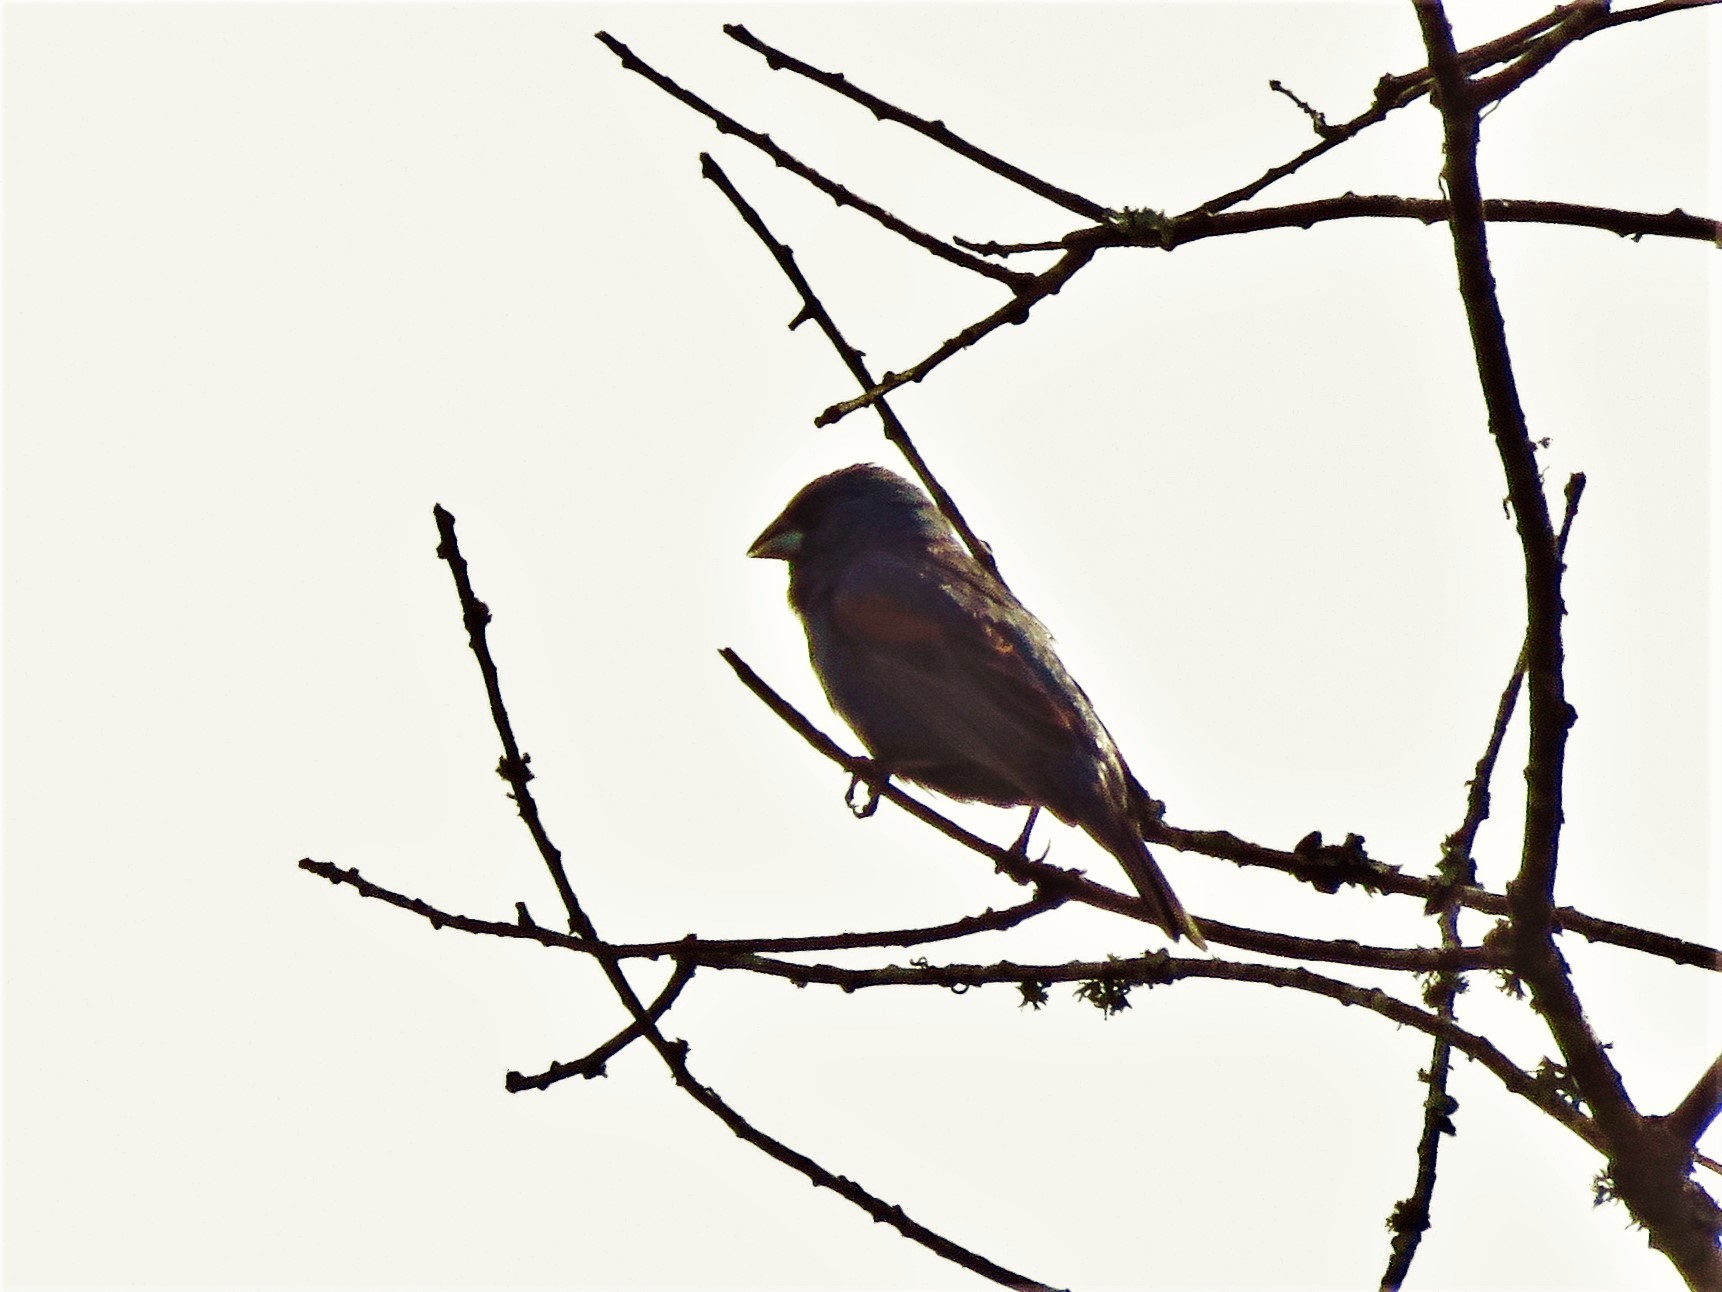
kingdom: Animalia
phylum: Chordata
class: Aves
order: Passeriformes
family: Cardinalidae
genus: Passerina
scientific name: Passerina caerulea
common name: Blue grosbeak
